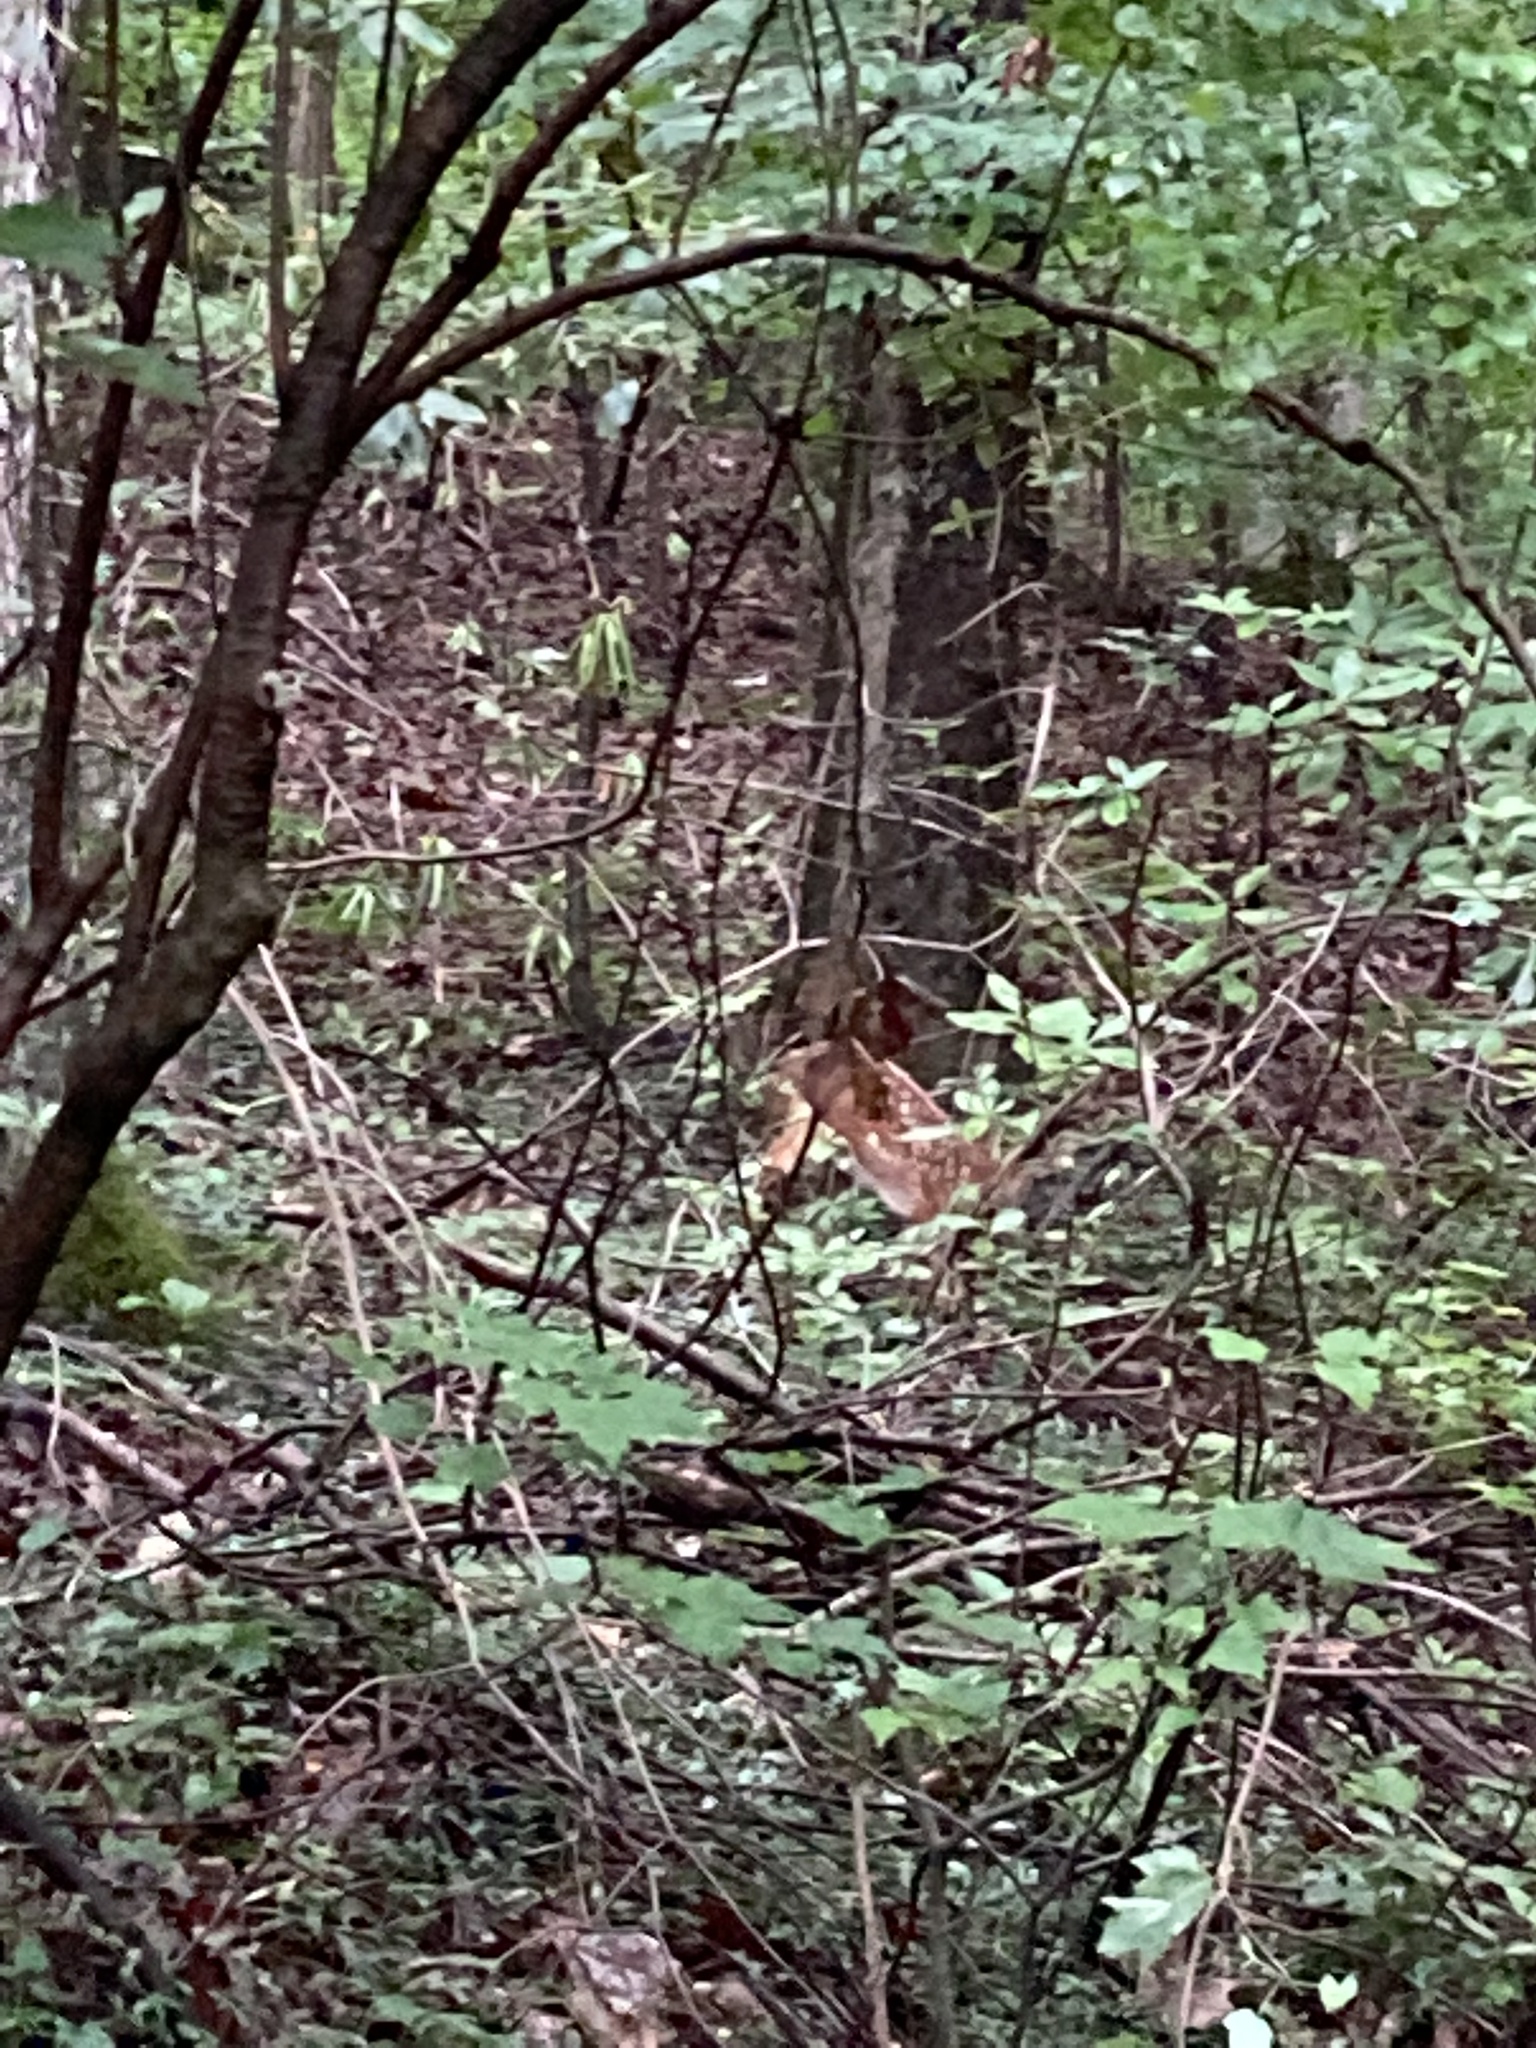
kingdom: Animalia
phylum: Chordata
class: Mammalia
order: Artiodactyla
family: Cervidae
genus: Odocoileus
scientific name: Odocoileus virginianus
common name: White-tailed deer
